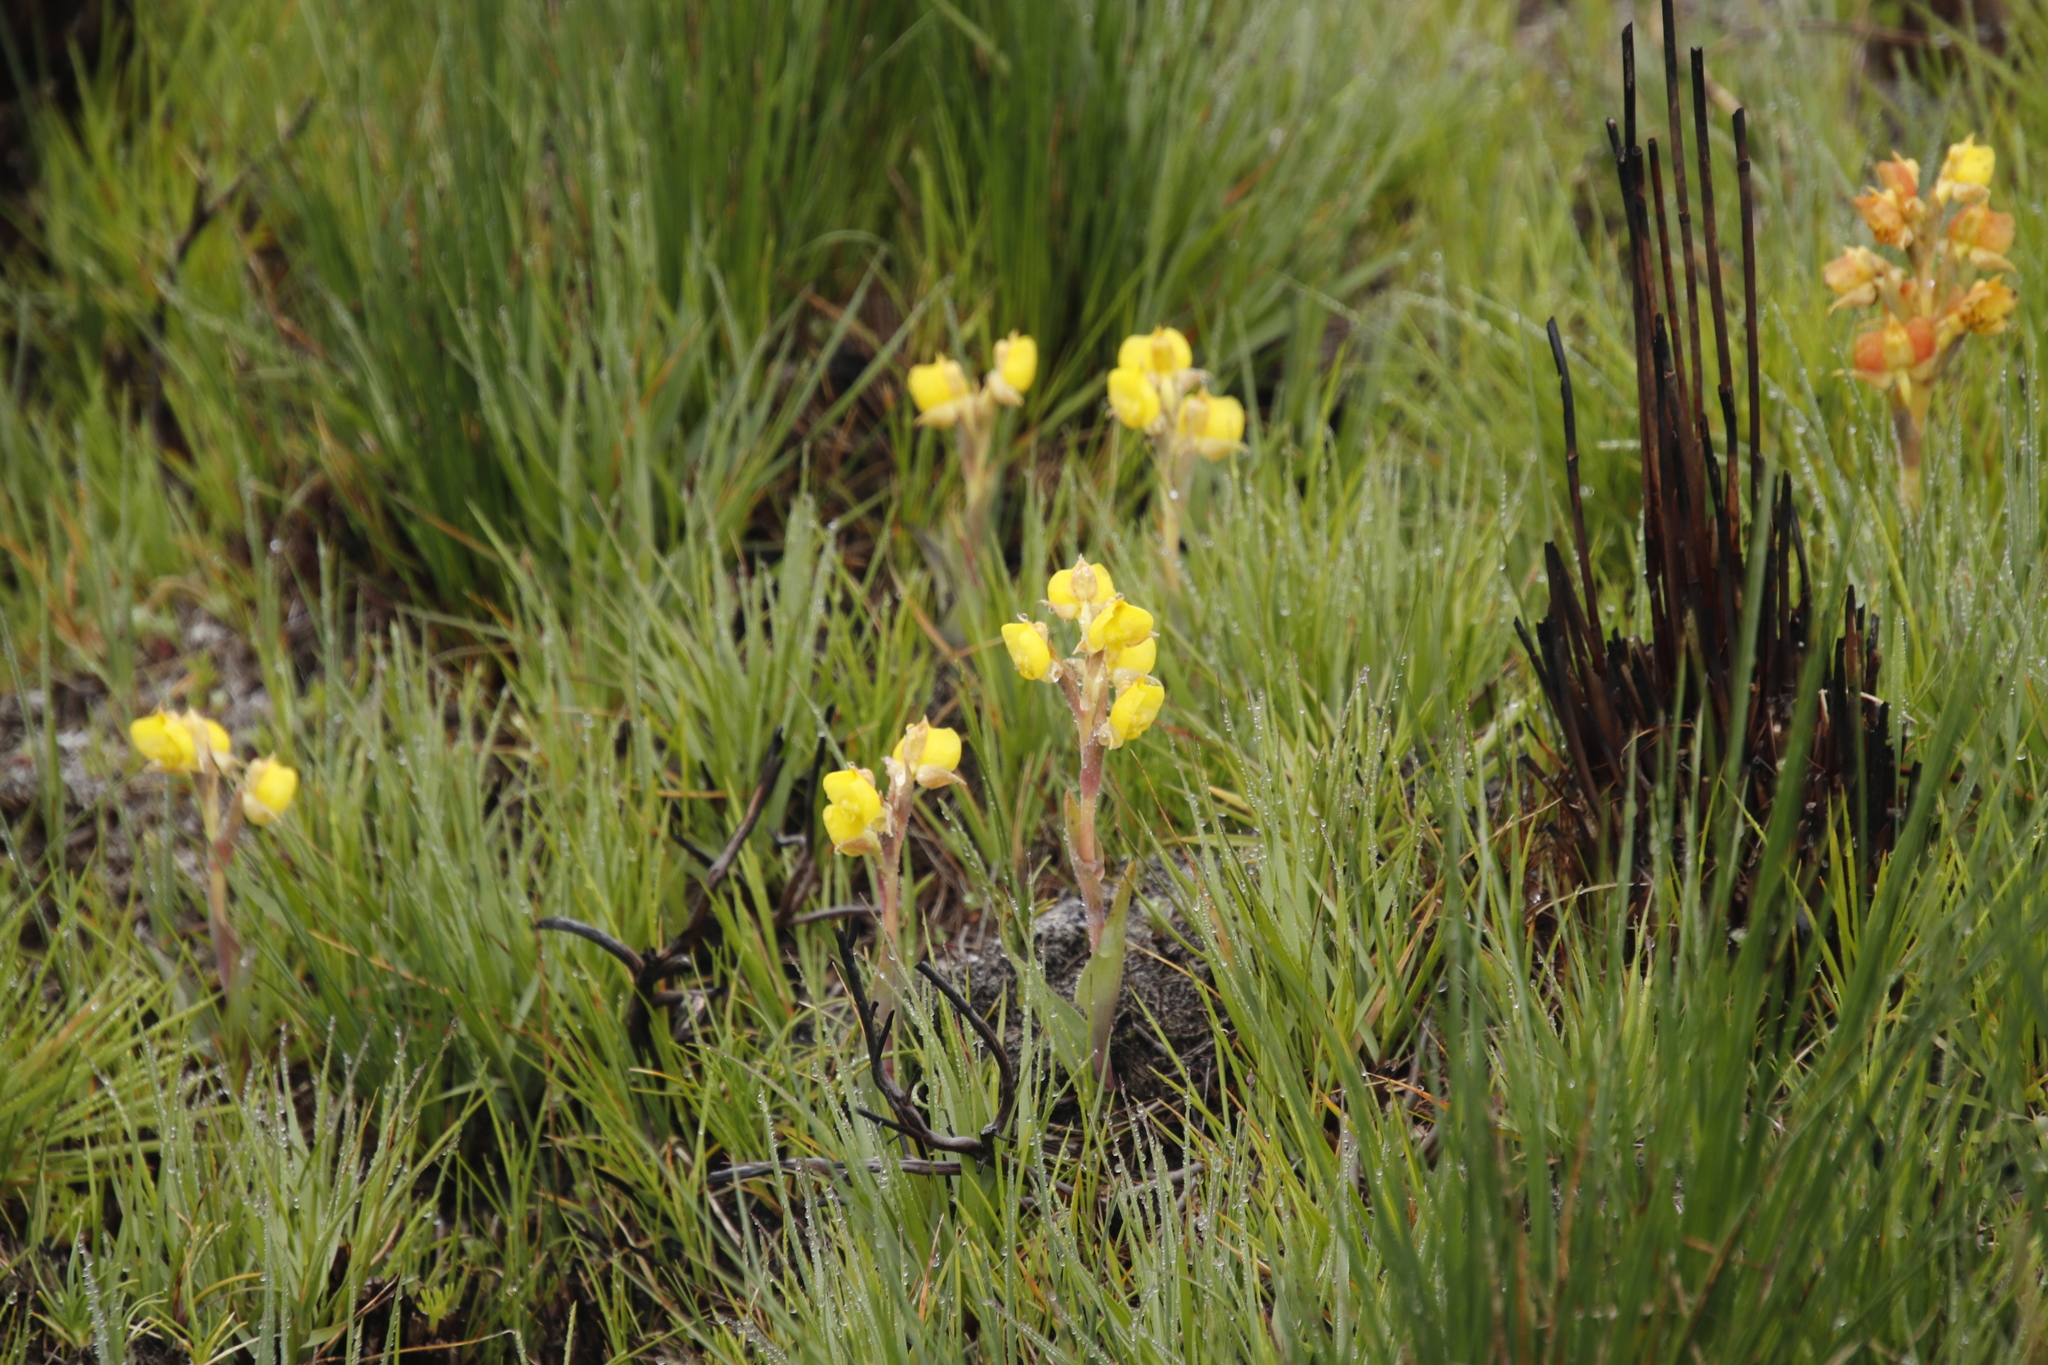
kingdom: Plantae
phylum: Tracheophyta
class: Liliopsida
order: Asparagales
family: Orchidaceae
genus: Pterygodium
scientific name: Pterygodium acutifolium
